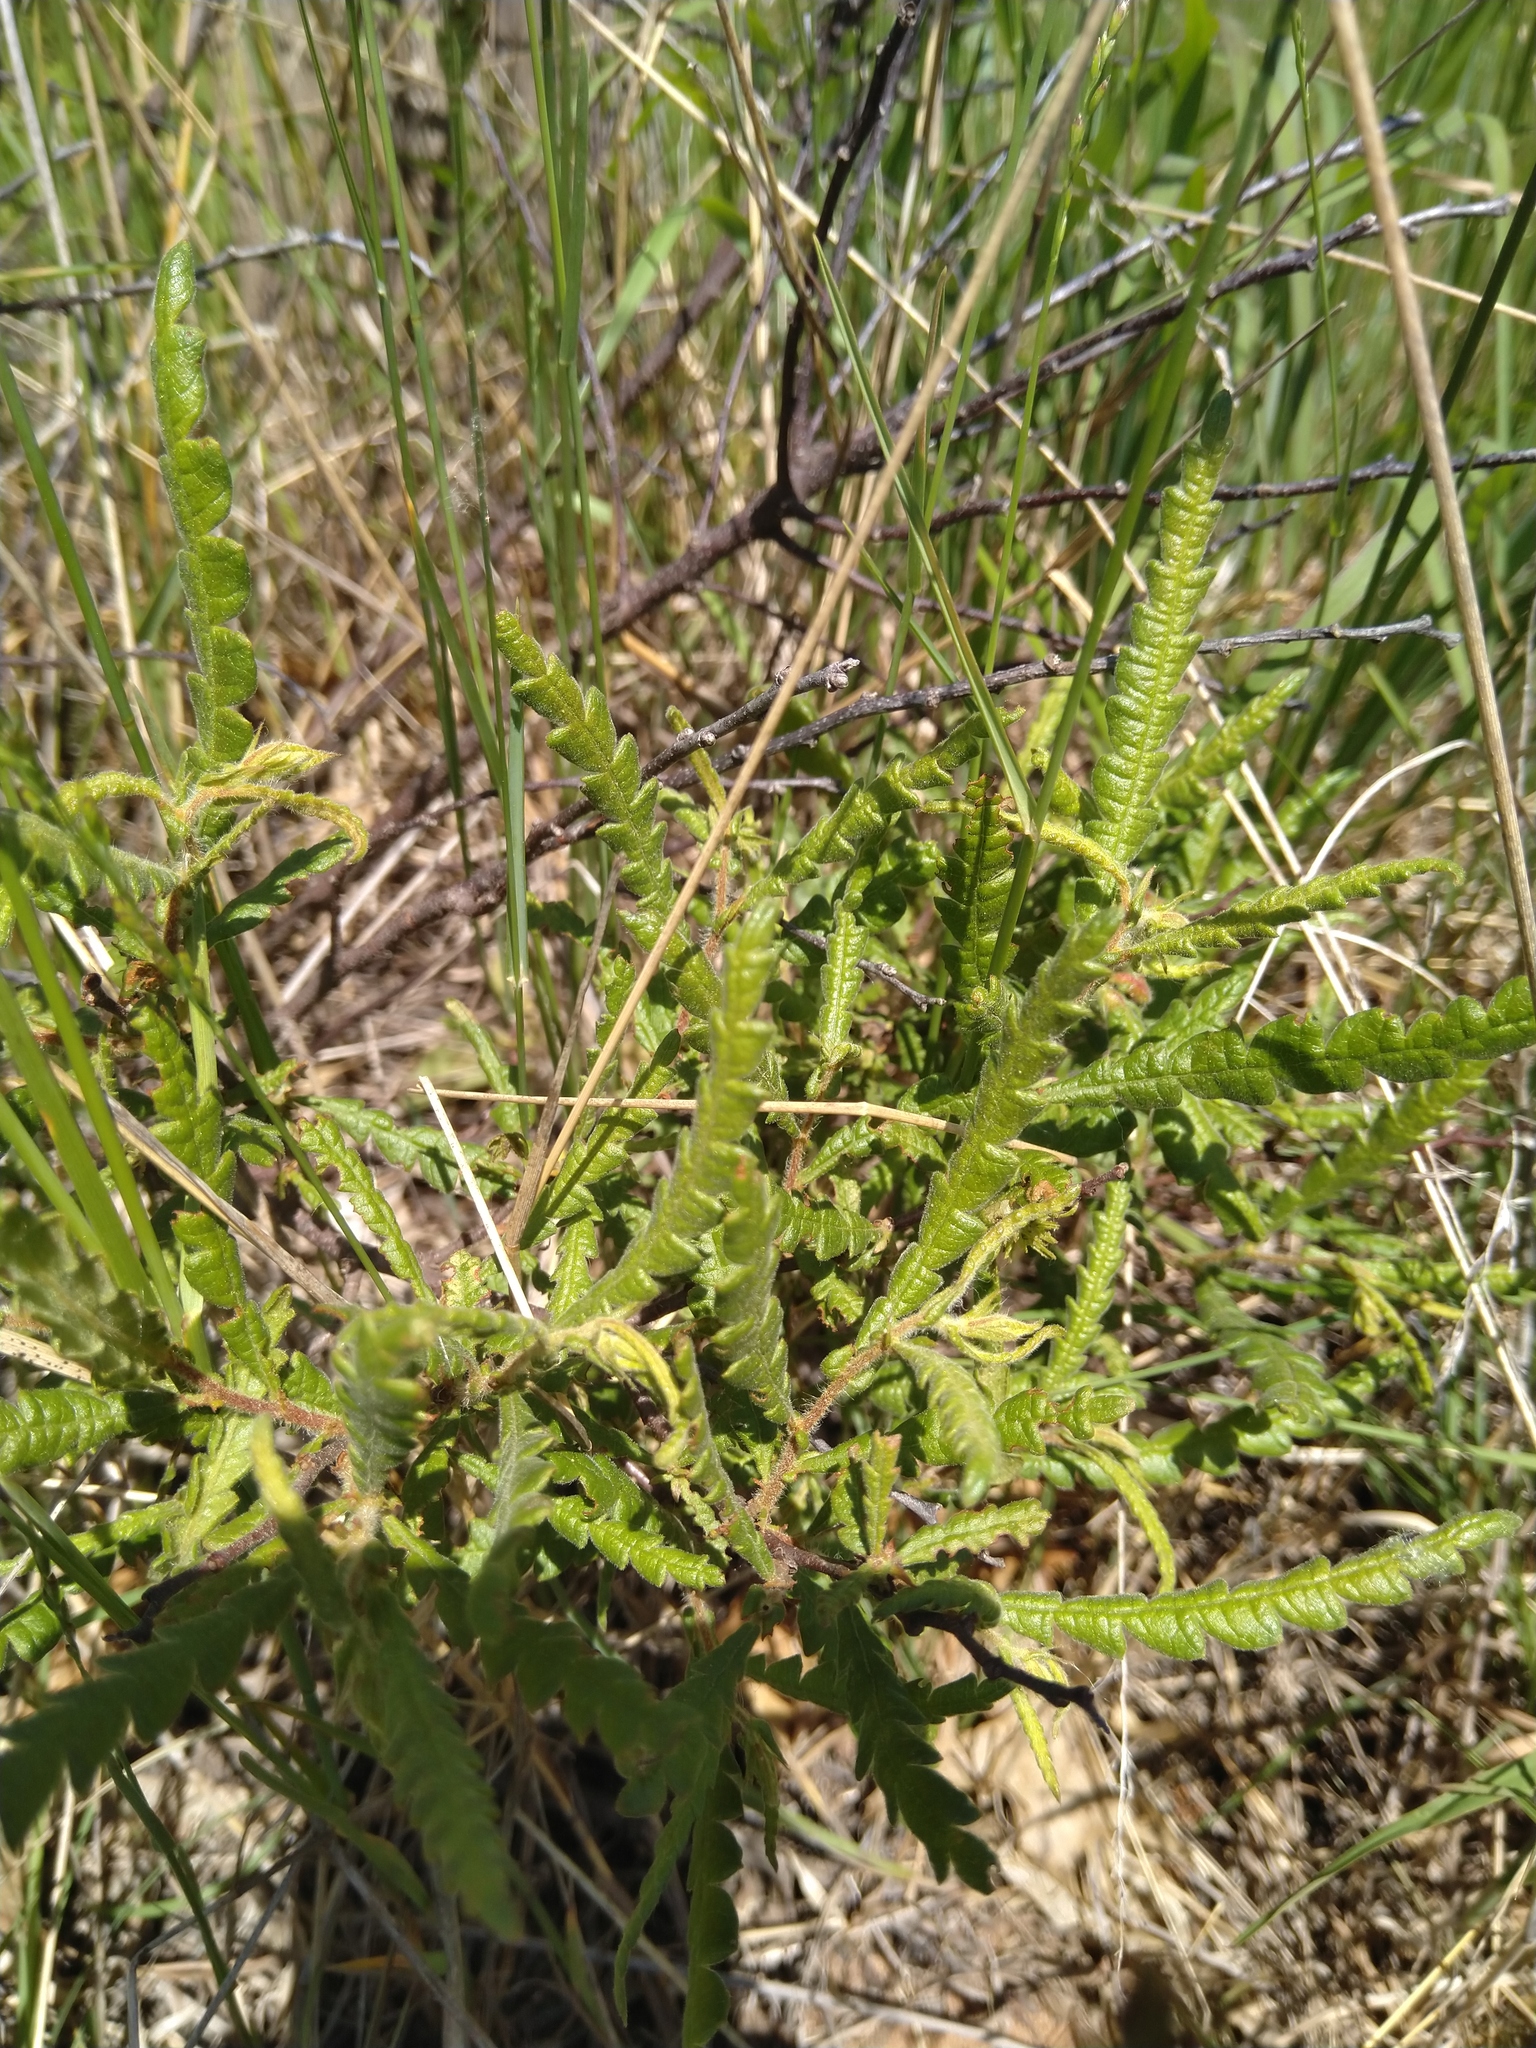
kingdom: Plantae
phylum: Tracheophyta
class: Magnoliopsida
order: Fagales
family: Myricaceae
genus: Comptonia
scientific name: Comptonia peregrina
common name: Sweet-fern
